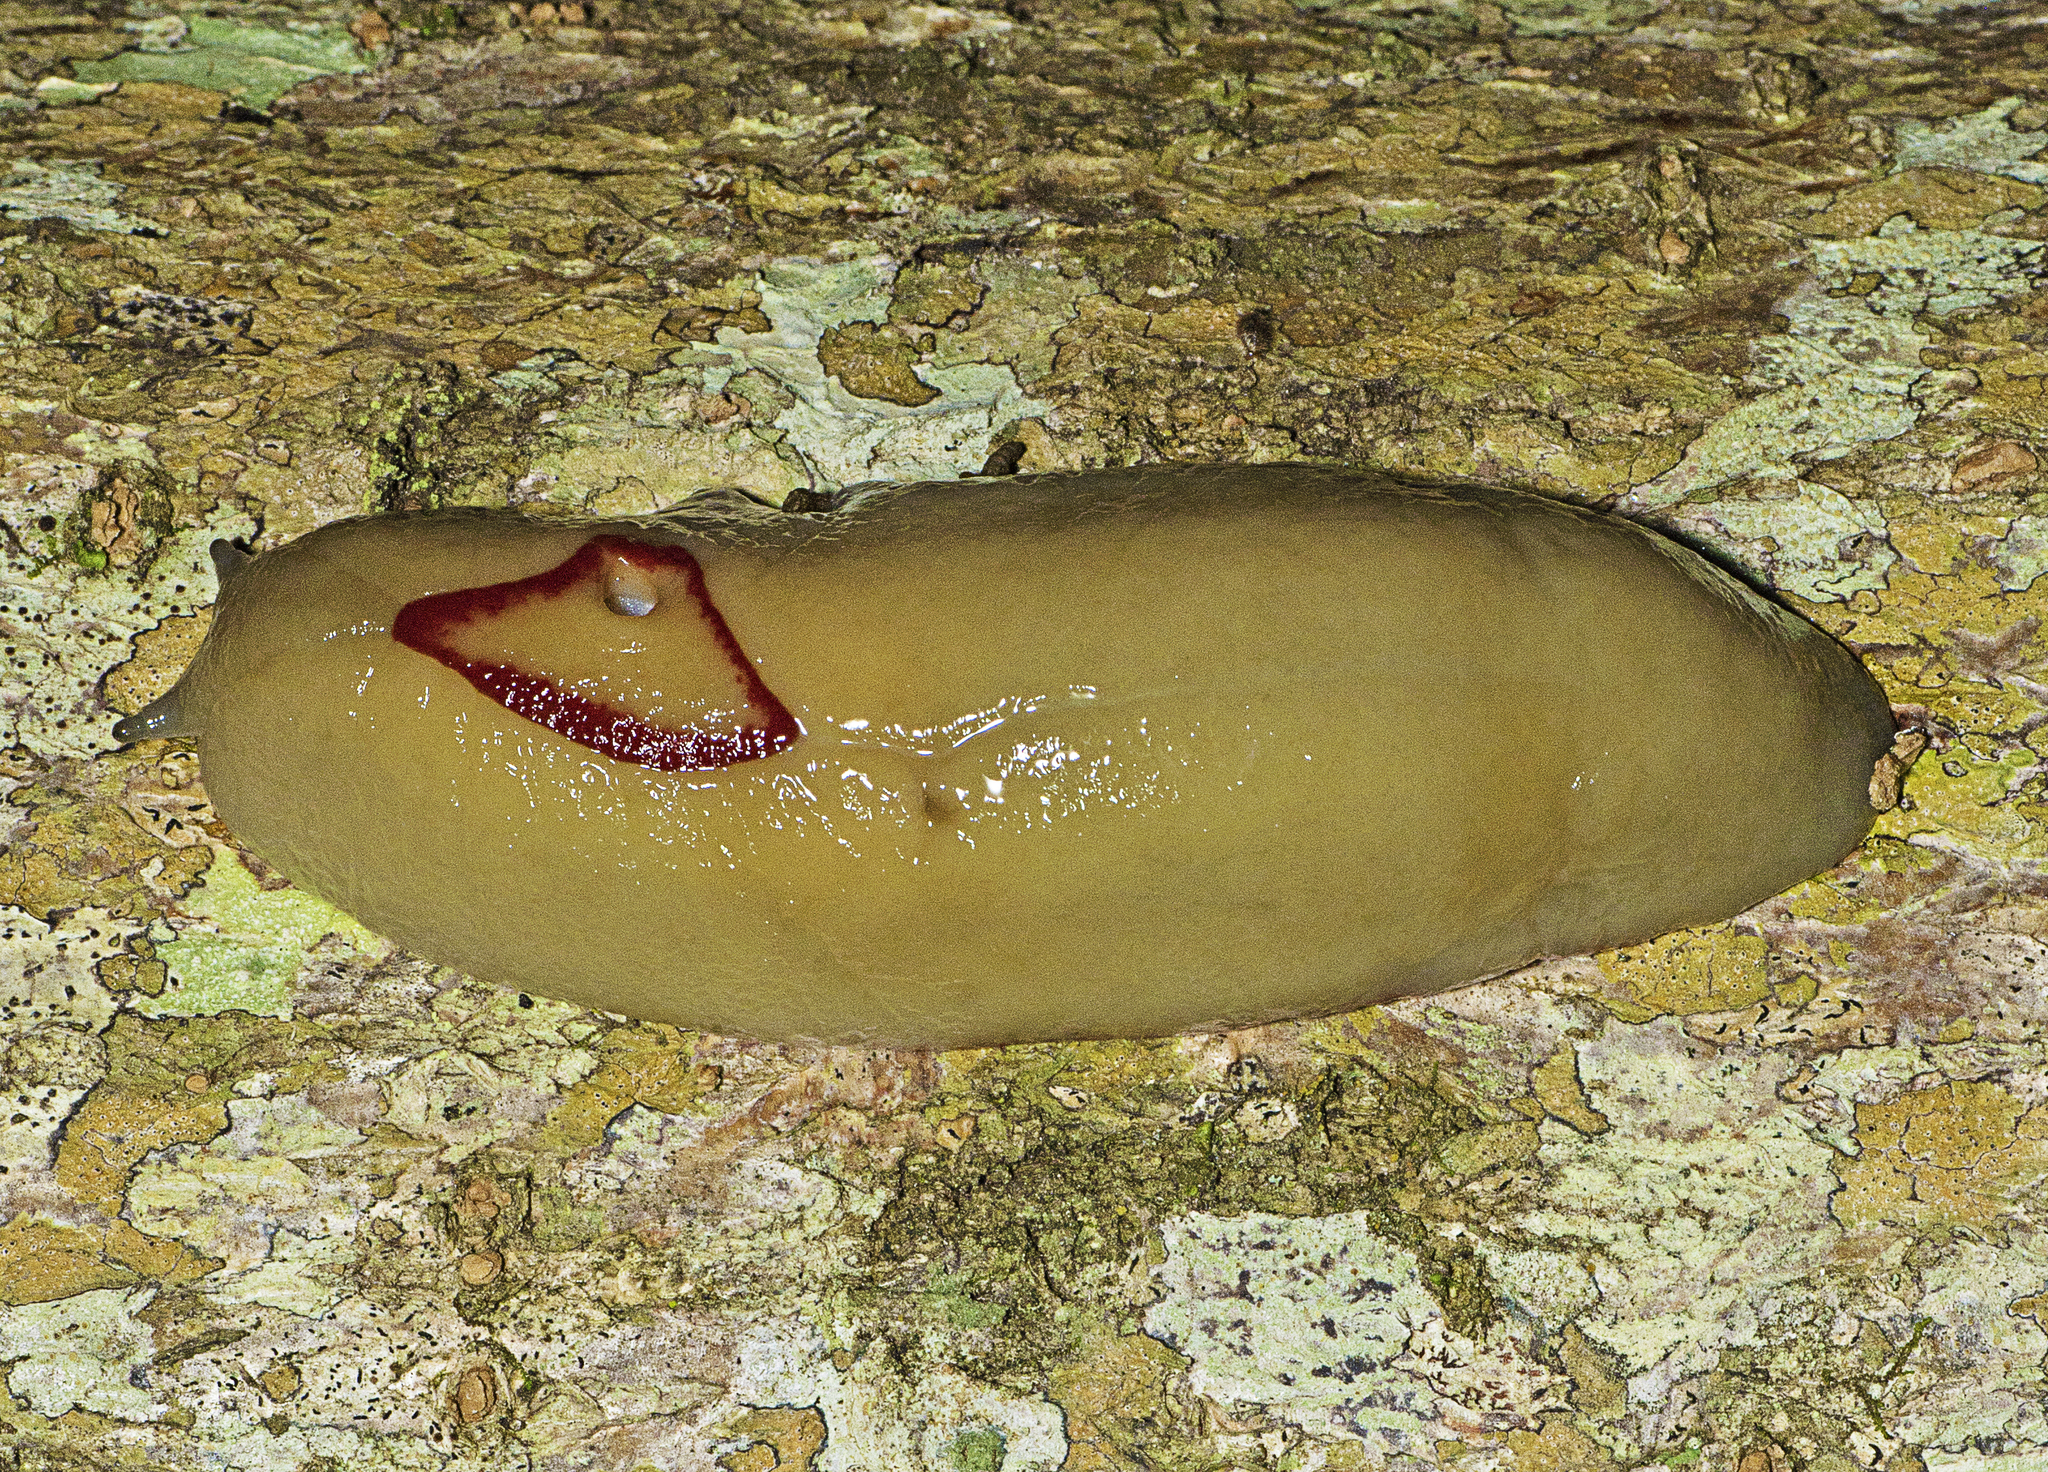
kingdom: Animalia
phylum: Mollusca
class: Gastropoda
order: Stylommatophora
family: Athoracophoridae
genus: Triboniophorus
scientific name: Triboniophorus graeffei
